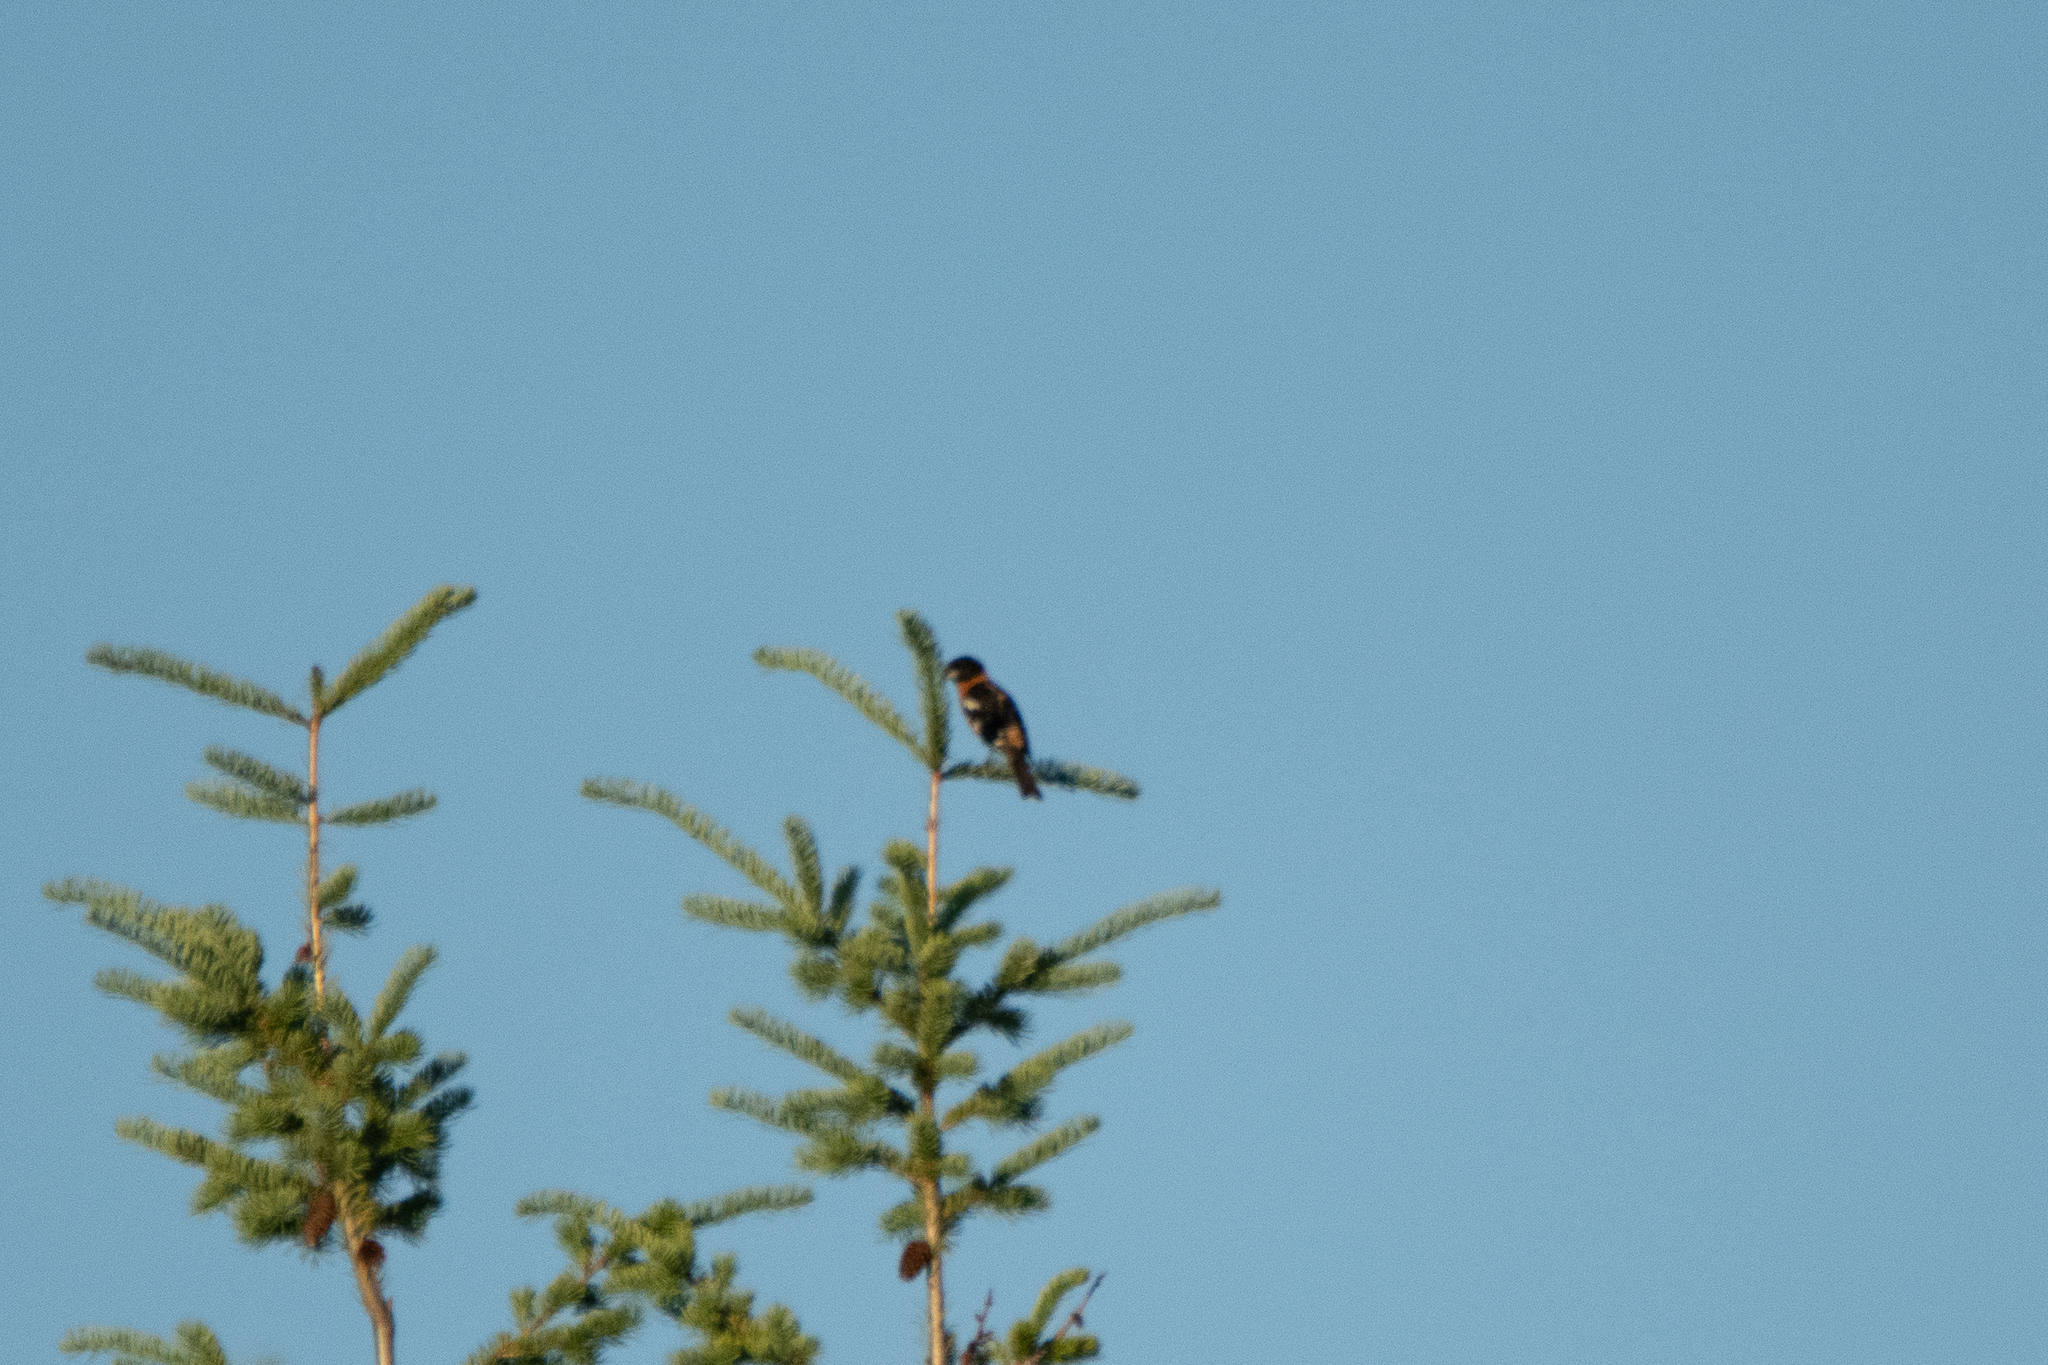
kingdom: Animalia
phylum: Chordata
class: Aves
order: Passeriformes
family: Cardinalidae
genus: Pheucticus
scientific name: Pheucticus melanocephalus
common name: Black-headed grosbeak
